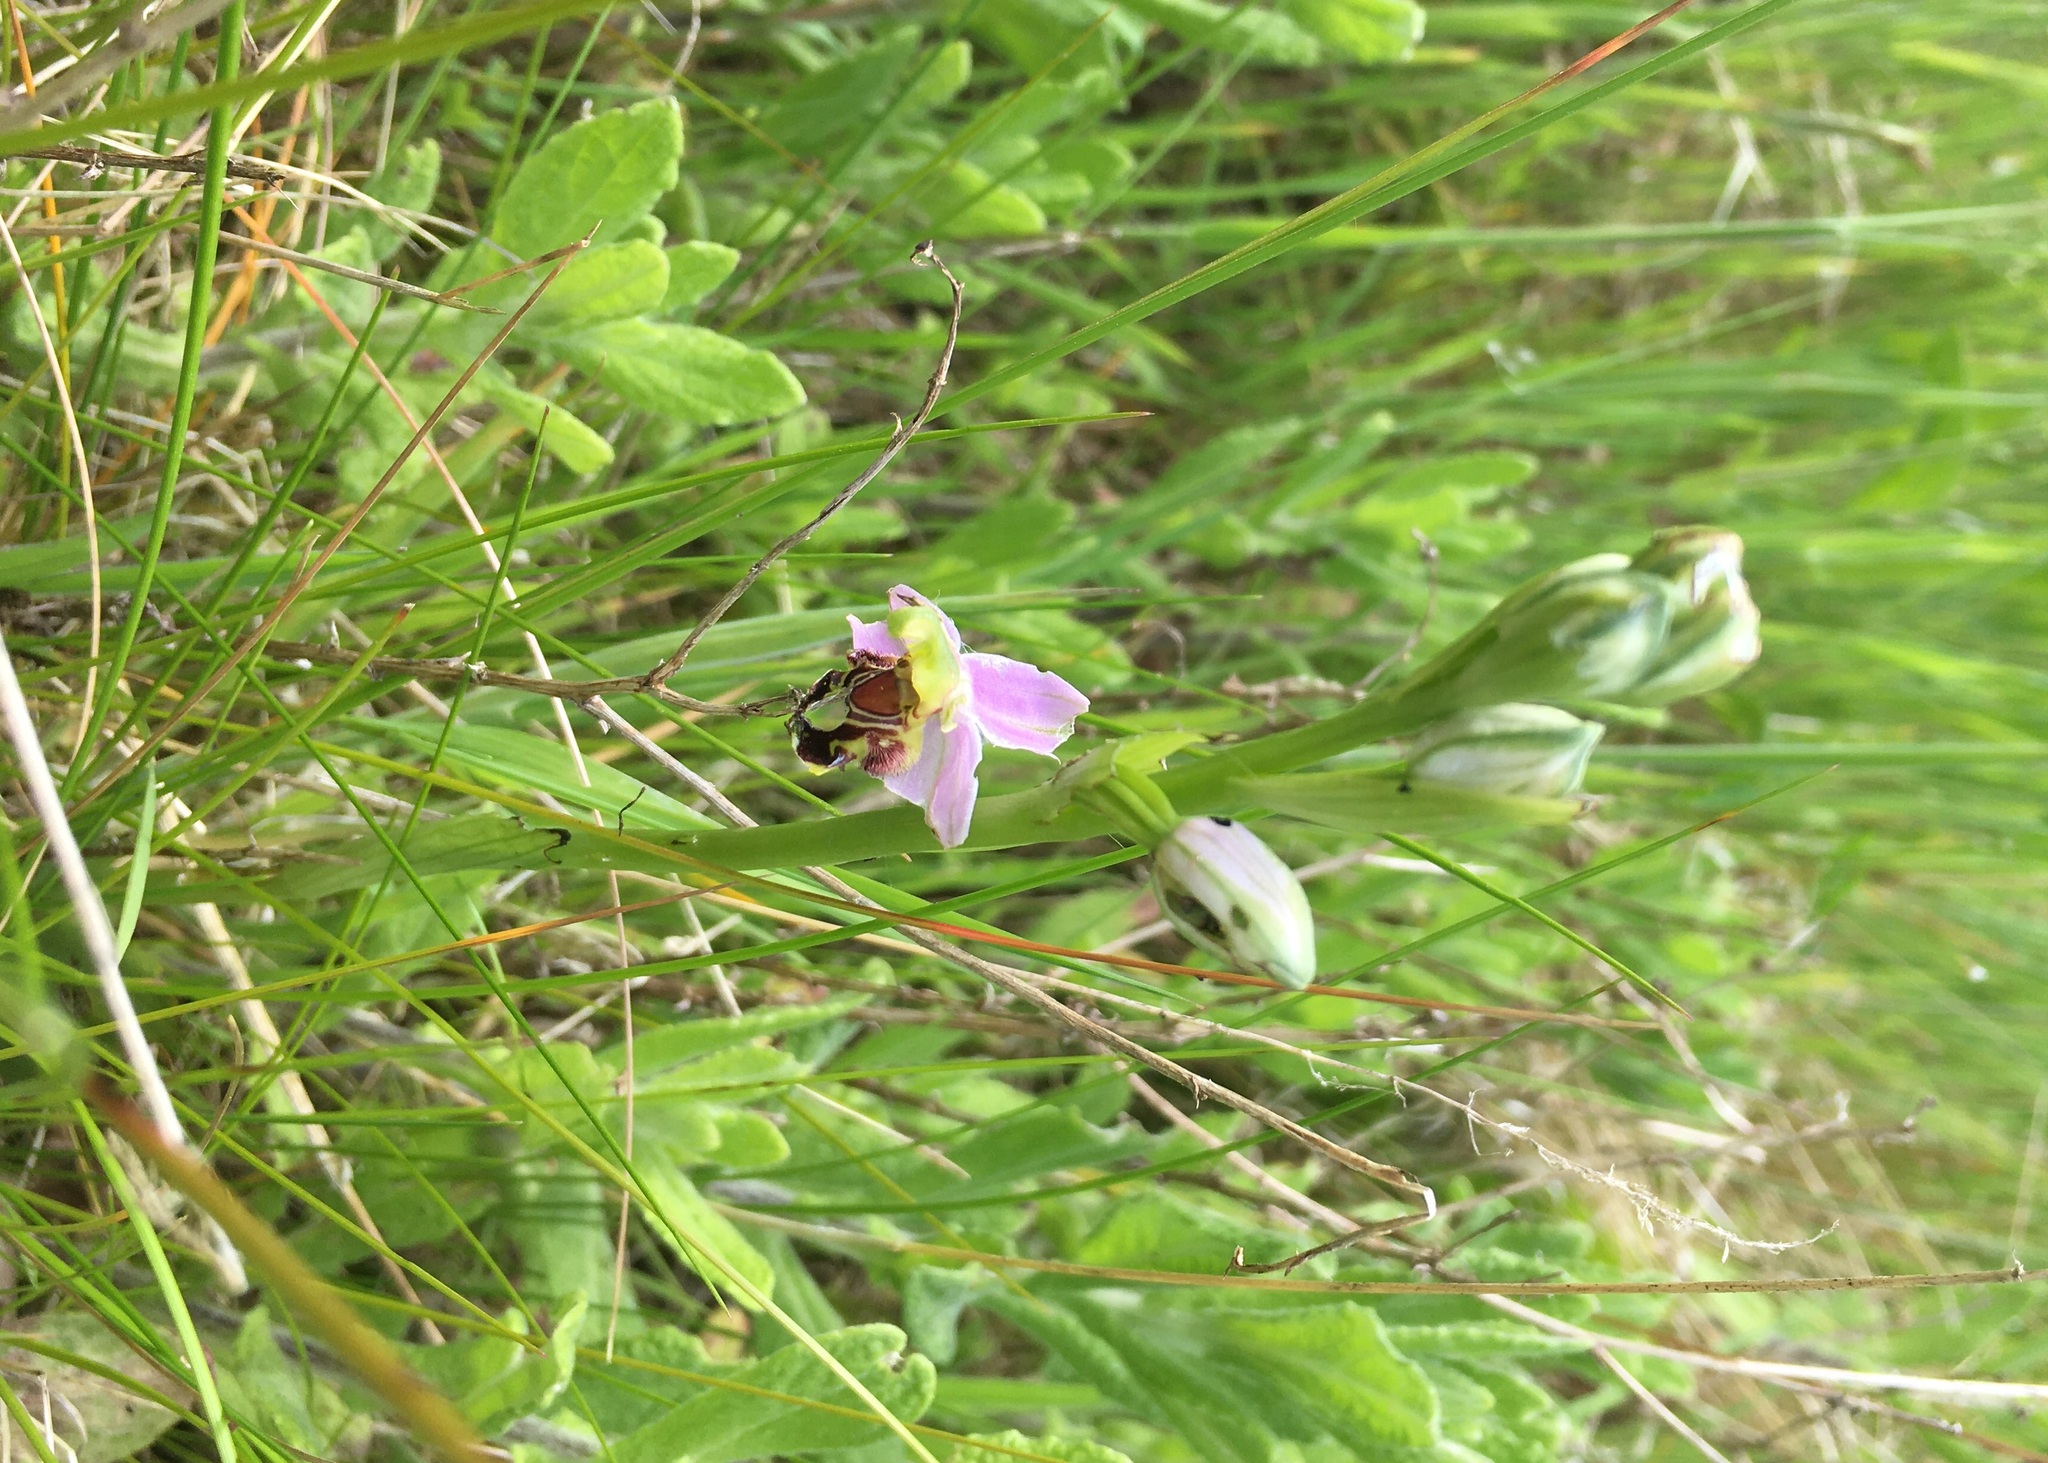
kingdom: Plantae
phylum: Tracheophyta
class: Liliopsida
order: Asparagales
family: Orchidaceae
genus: Ophrys
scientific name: Ophrys apifera
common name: Bee orchid
